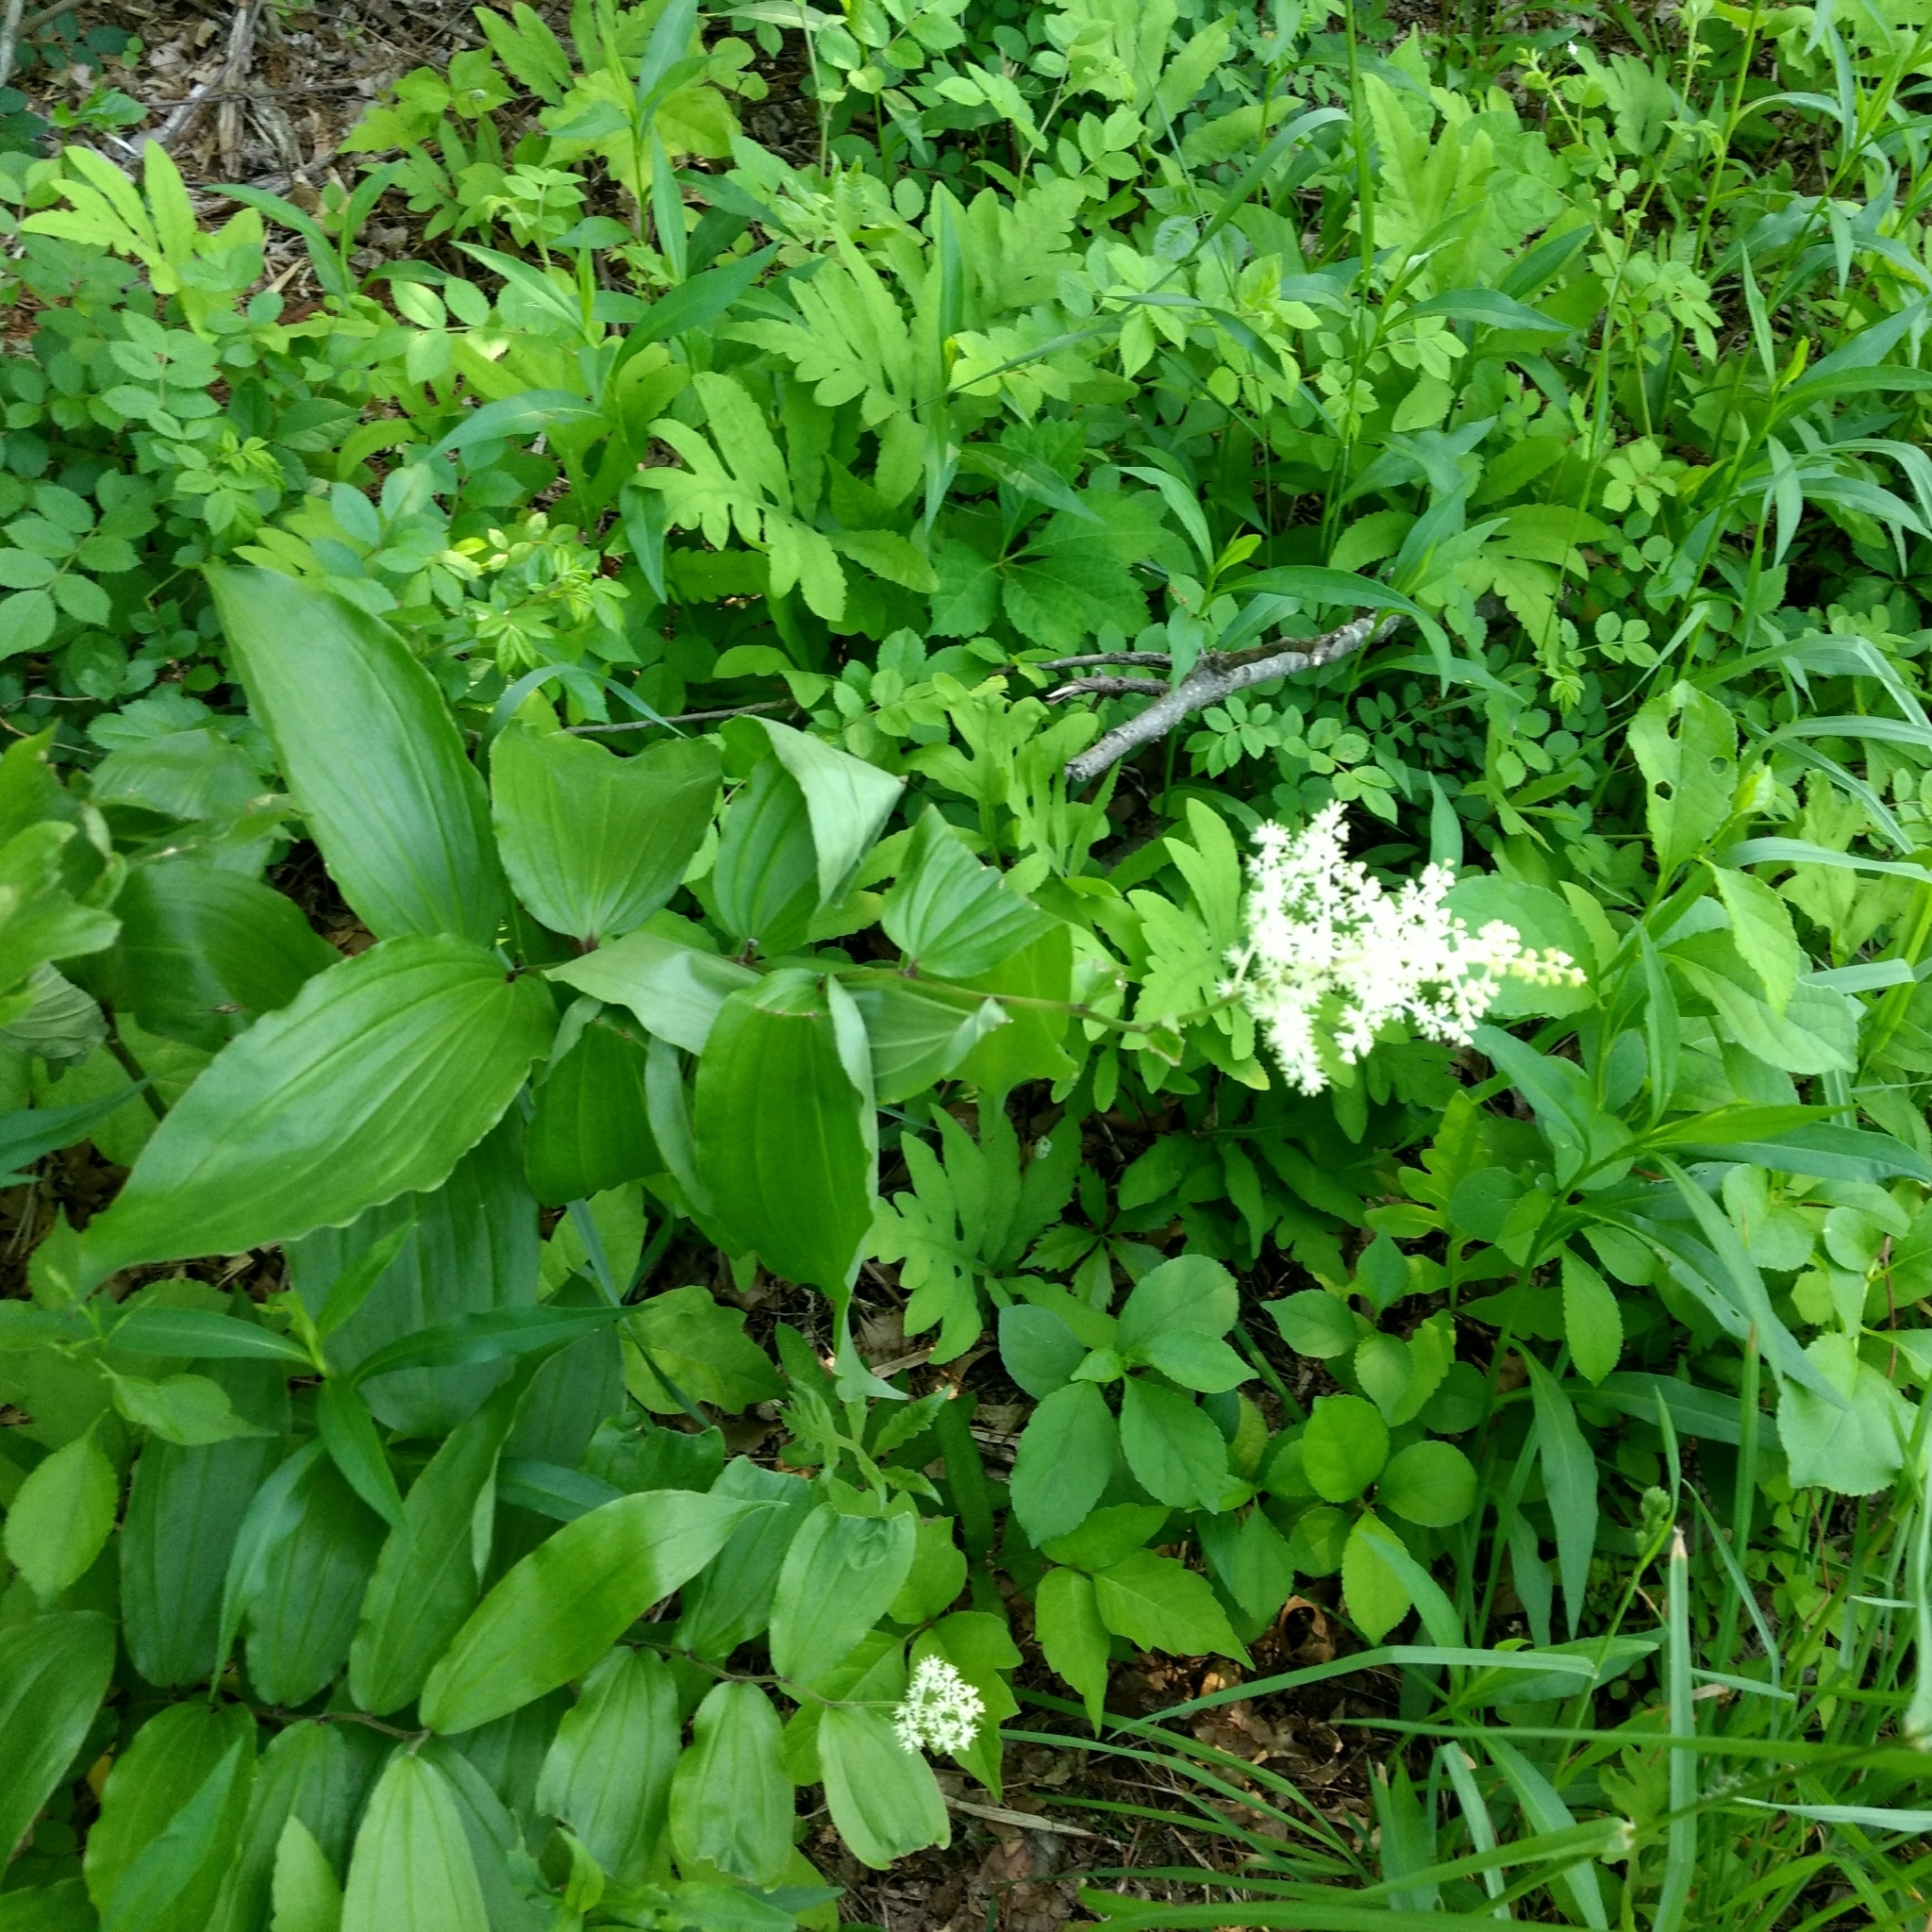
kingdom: Plantae
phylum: Tracheophyta
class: Liliopsida
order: Asparagales
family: Asparagaceae
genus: Maianthemum
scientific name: Maianthemum racemosum
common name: False spikenard
